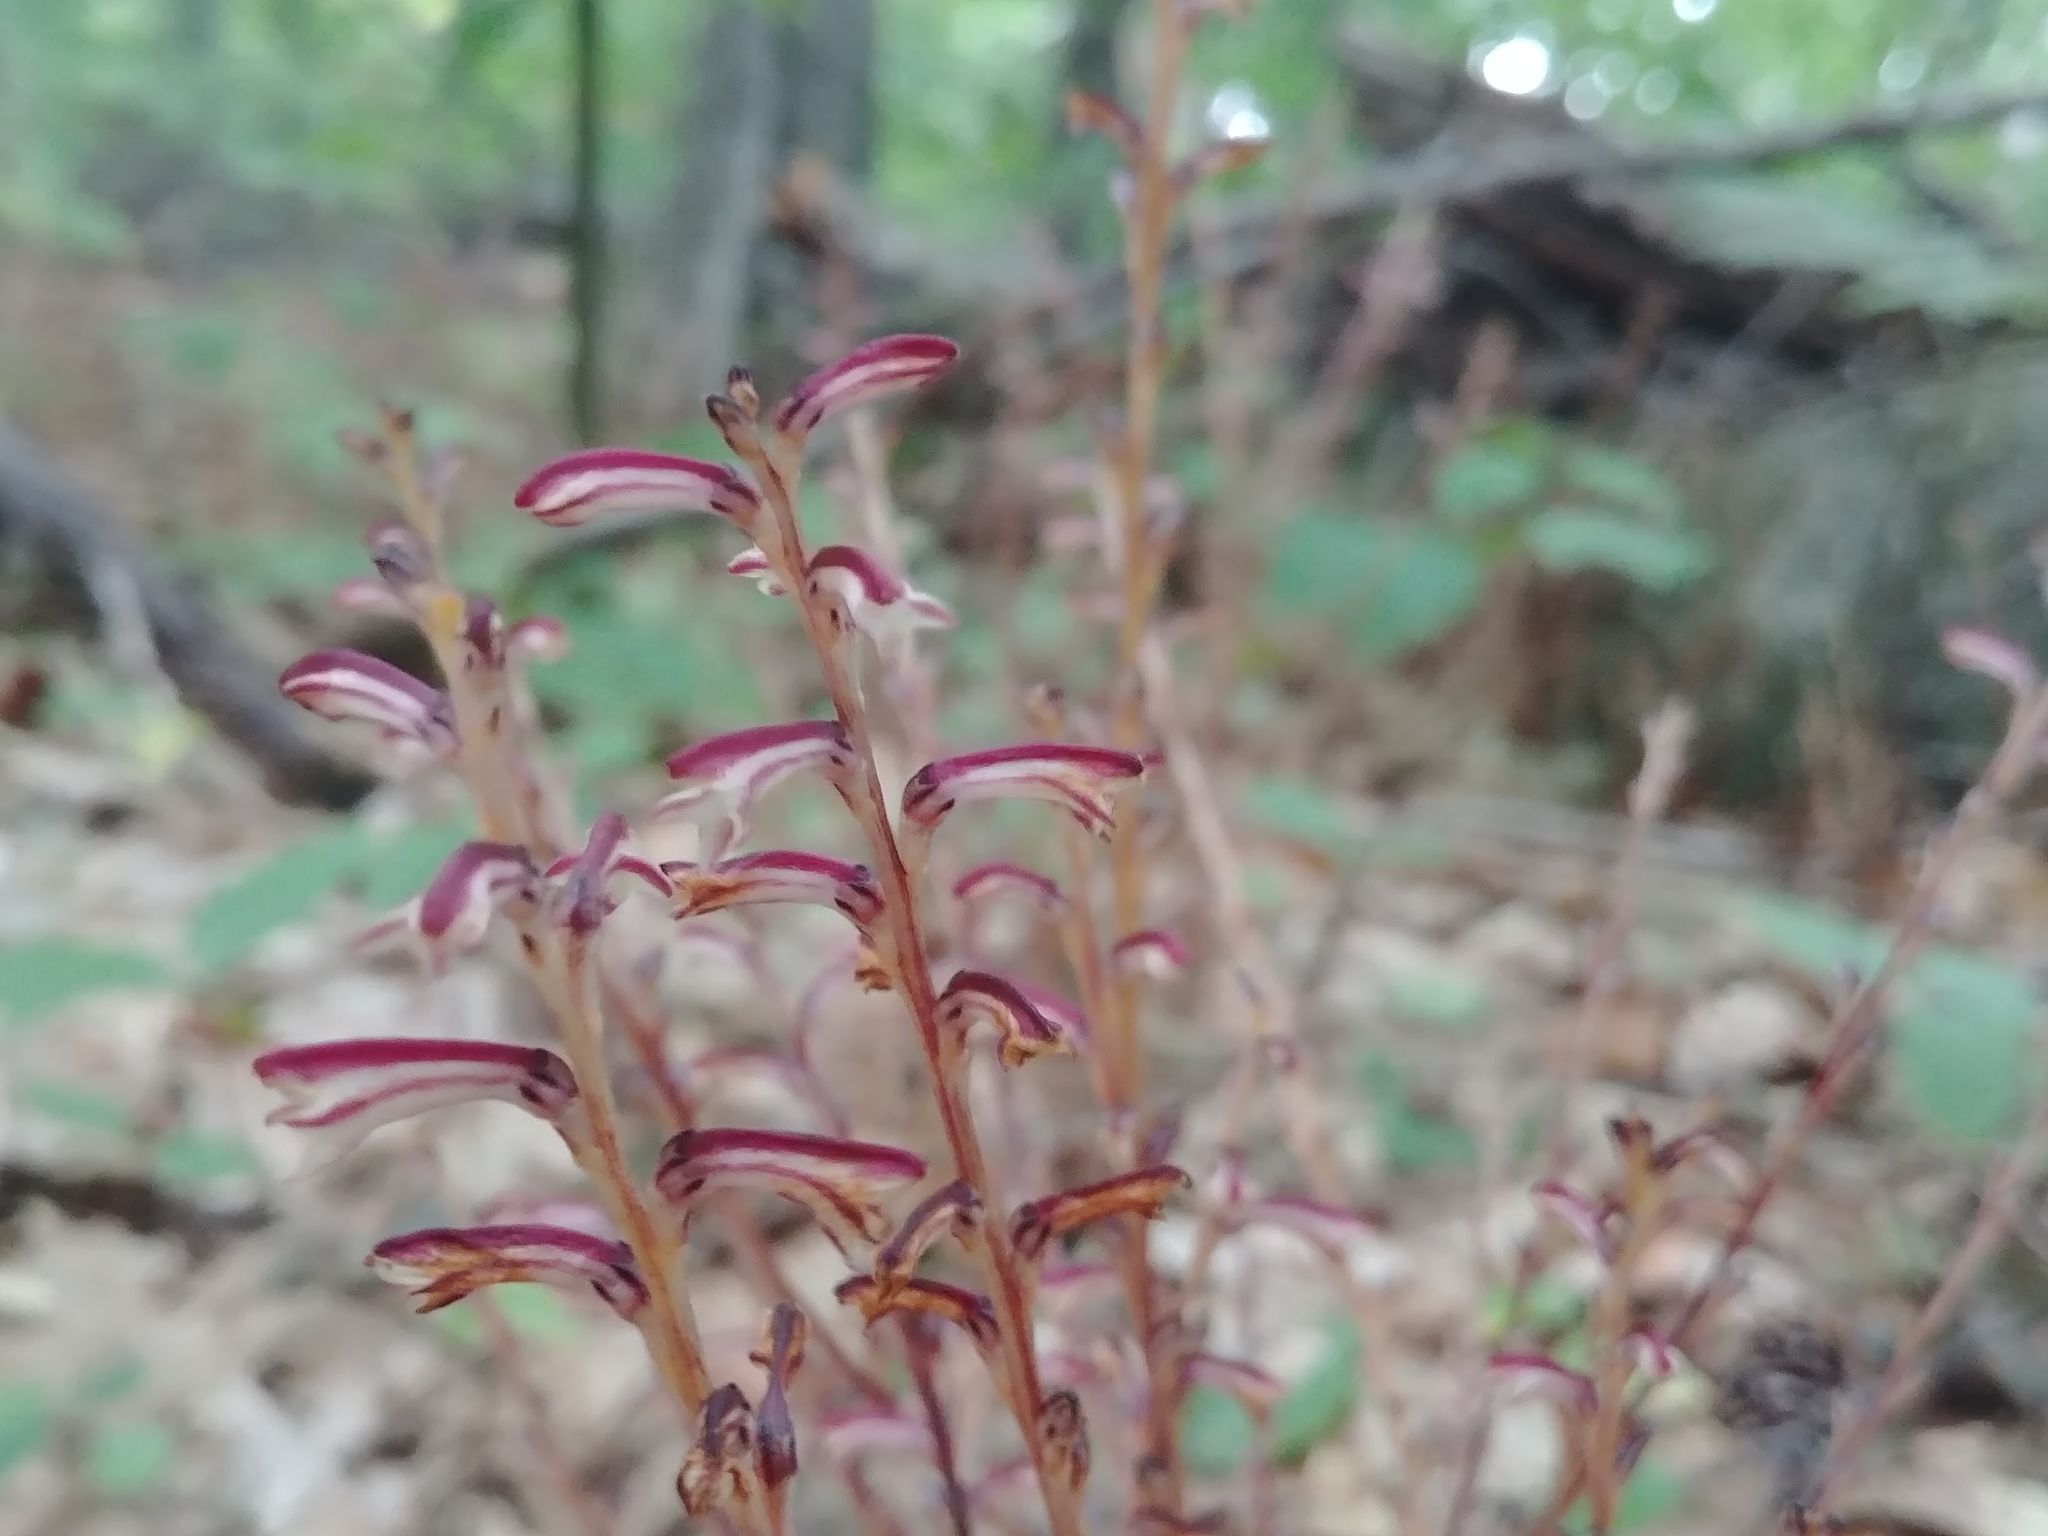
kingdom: Plantae
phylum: Tracheophyta
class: Magnoliopsida
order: Lamiales
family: Orobanchaceae
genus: Epifagus
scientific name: Epifagus virginiana
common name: Beechdrops
